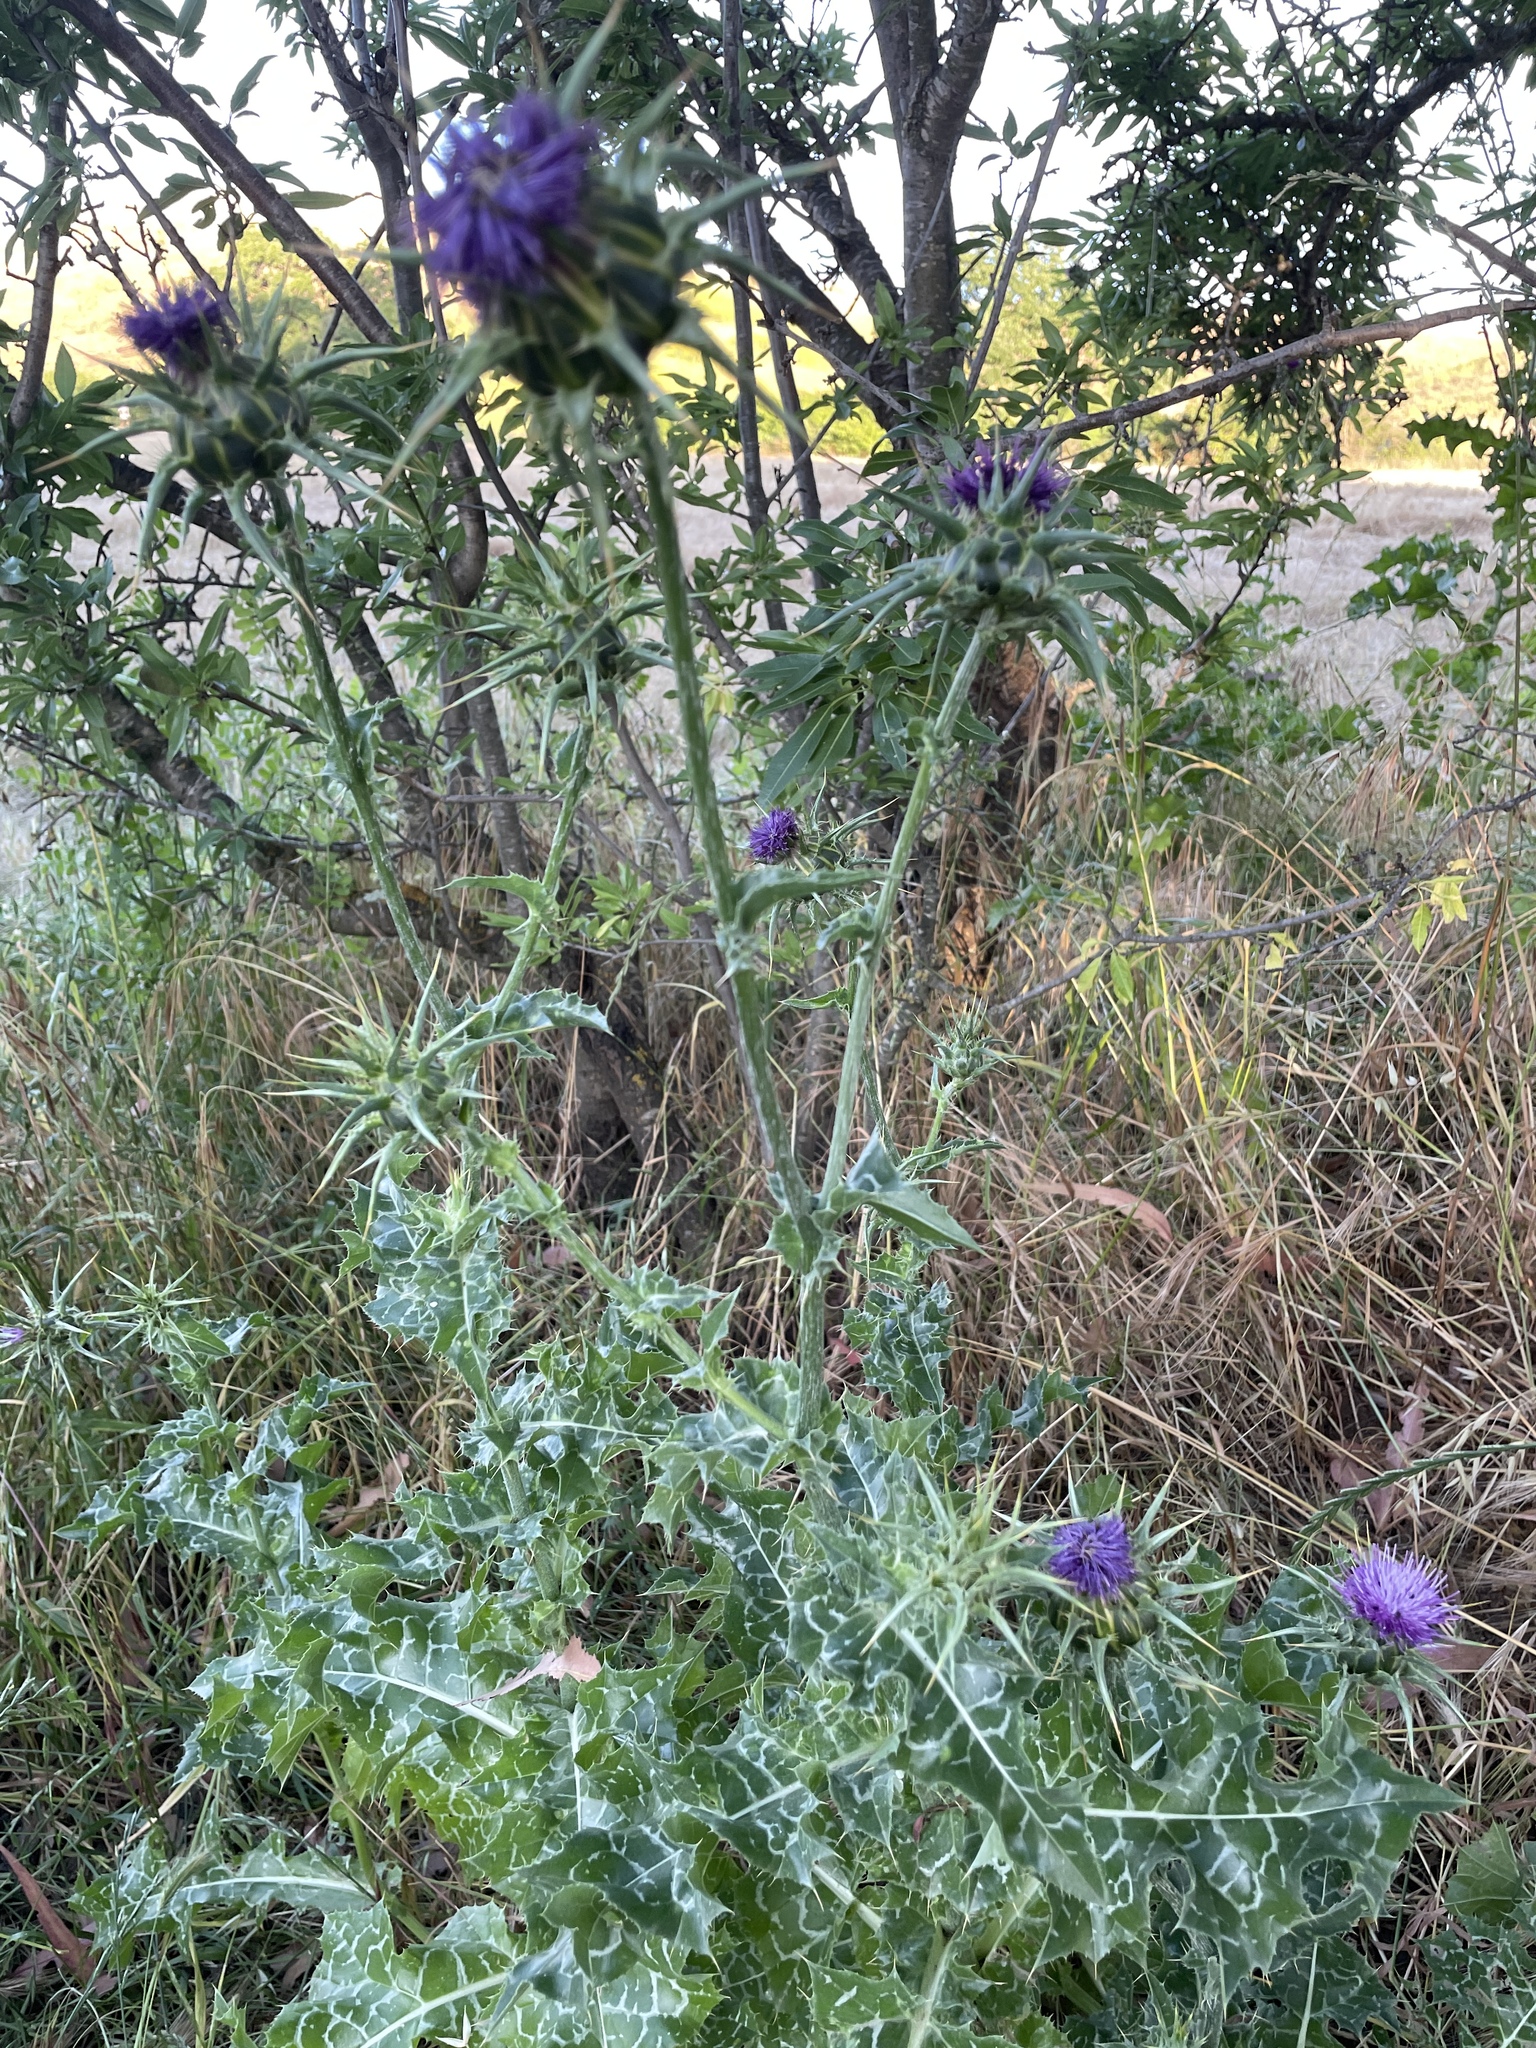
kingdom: Plantae
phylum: Tracheophyta
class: Magnoliopsida
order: Asterales
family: Asteraceae
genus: Silybum
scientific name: Silybum marianum
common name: Milk thistle
